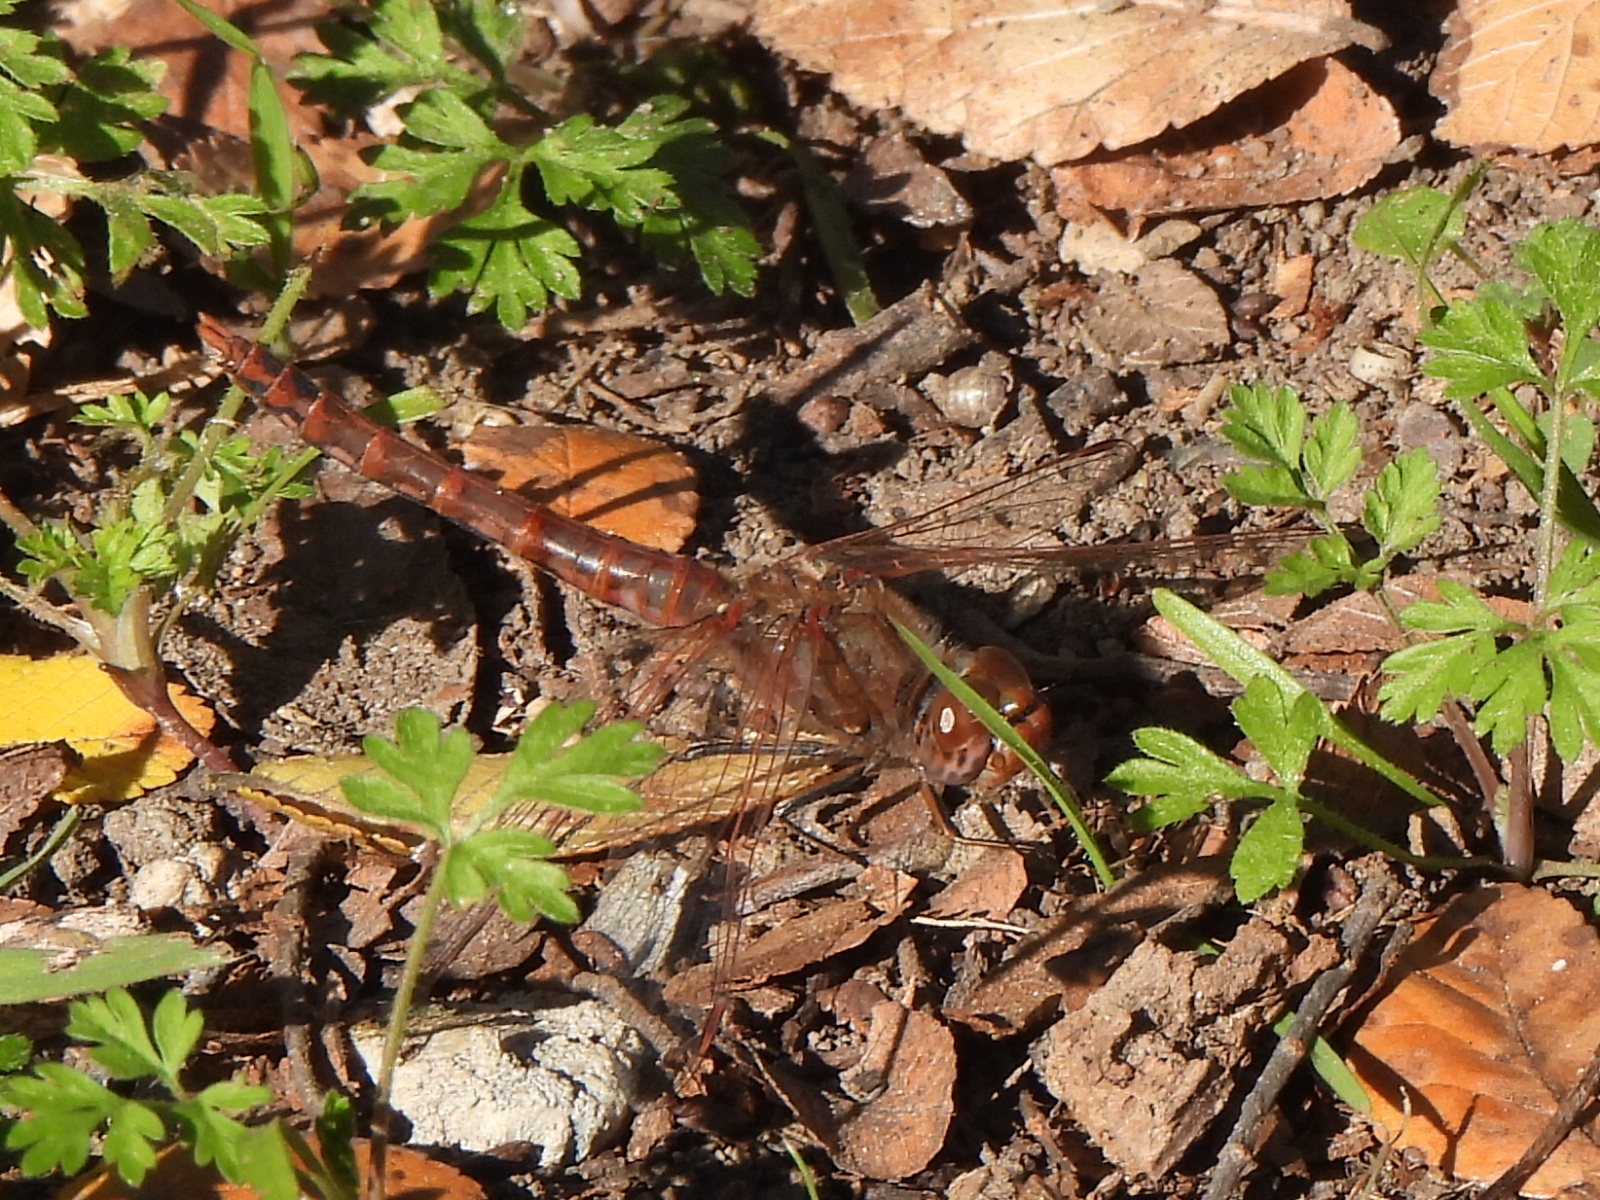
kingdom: Animalia
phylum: Arthropoda
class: Insecta
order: Odonata
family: Libellulidae
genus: Sympetrum
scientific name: Sympetrum corruptum
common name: Variegated meadowhawk
